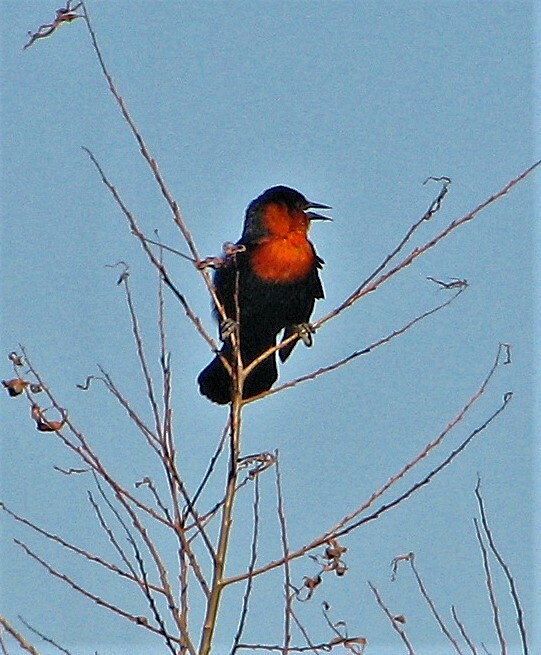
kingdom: Animalia
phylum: Chordata
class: Aves
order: Passeriformes
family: Icteridae
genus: Amblyramphus
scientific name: Amblyramphus holosericeus
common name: Scarlet-headed blackbird
